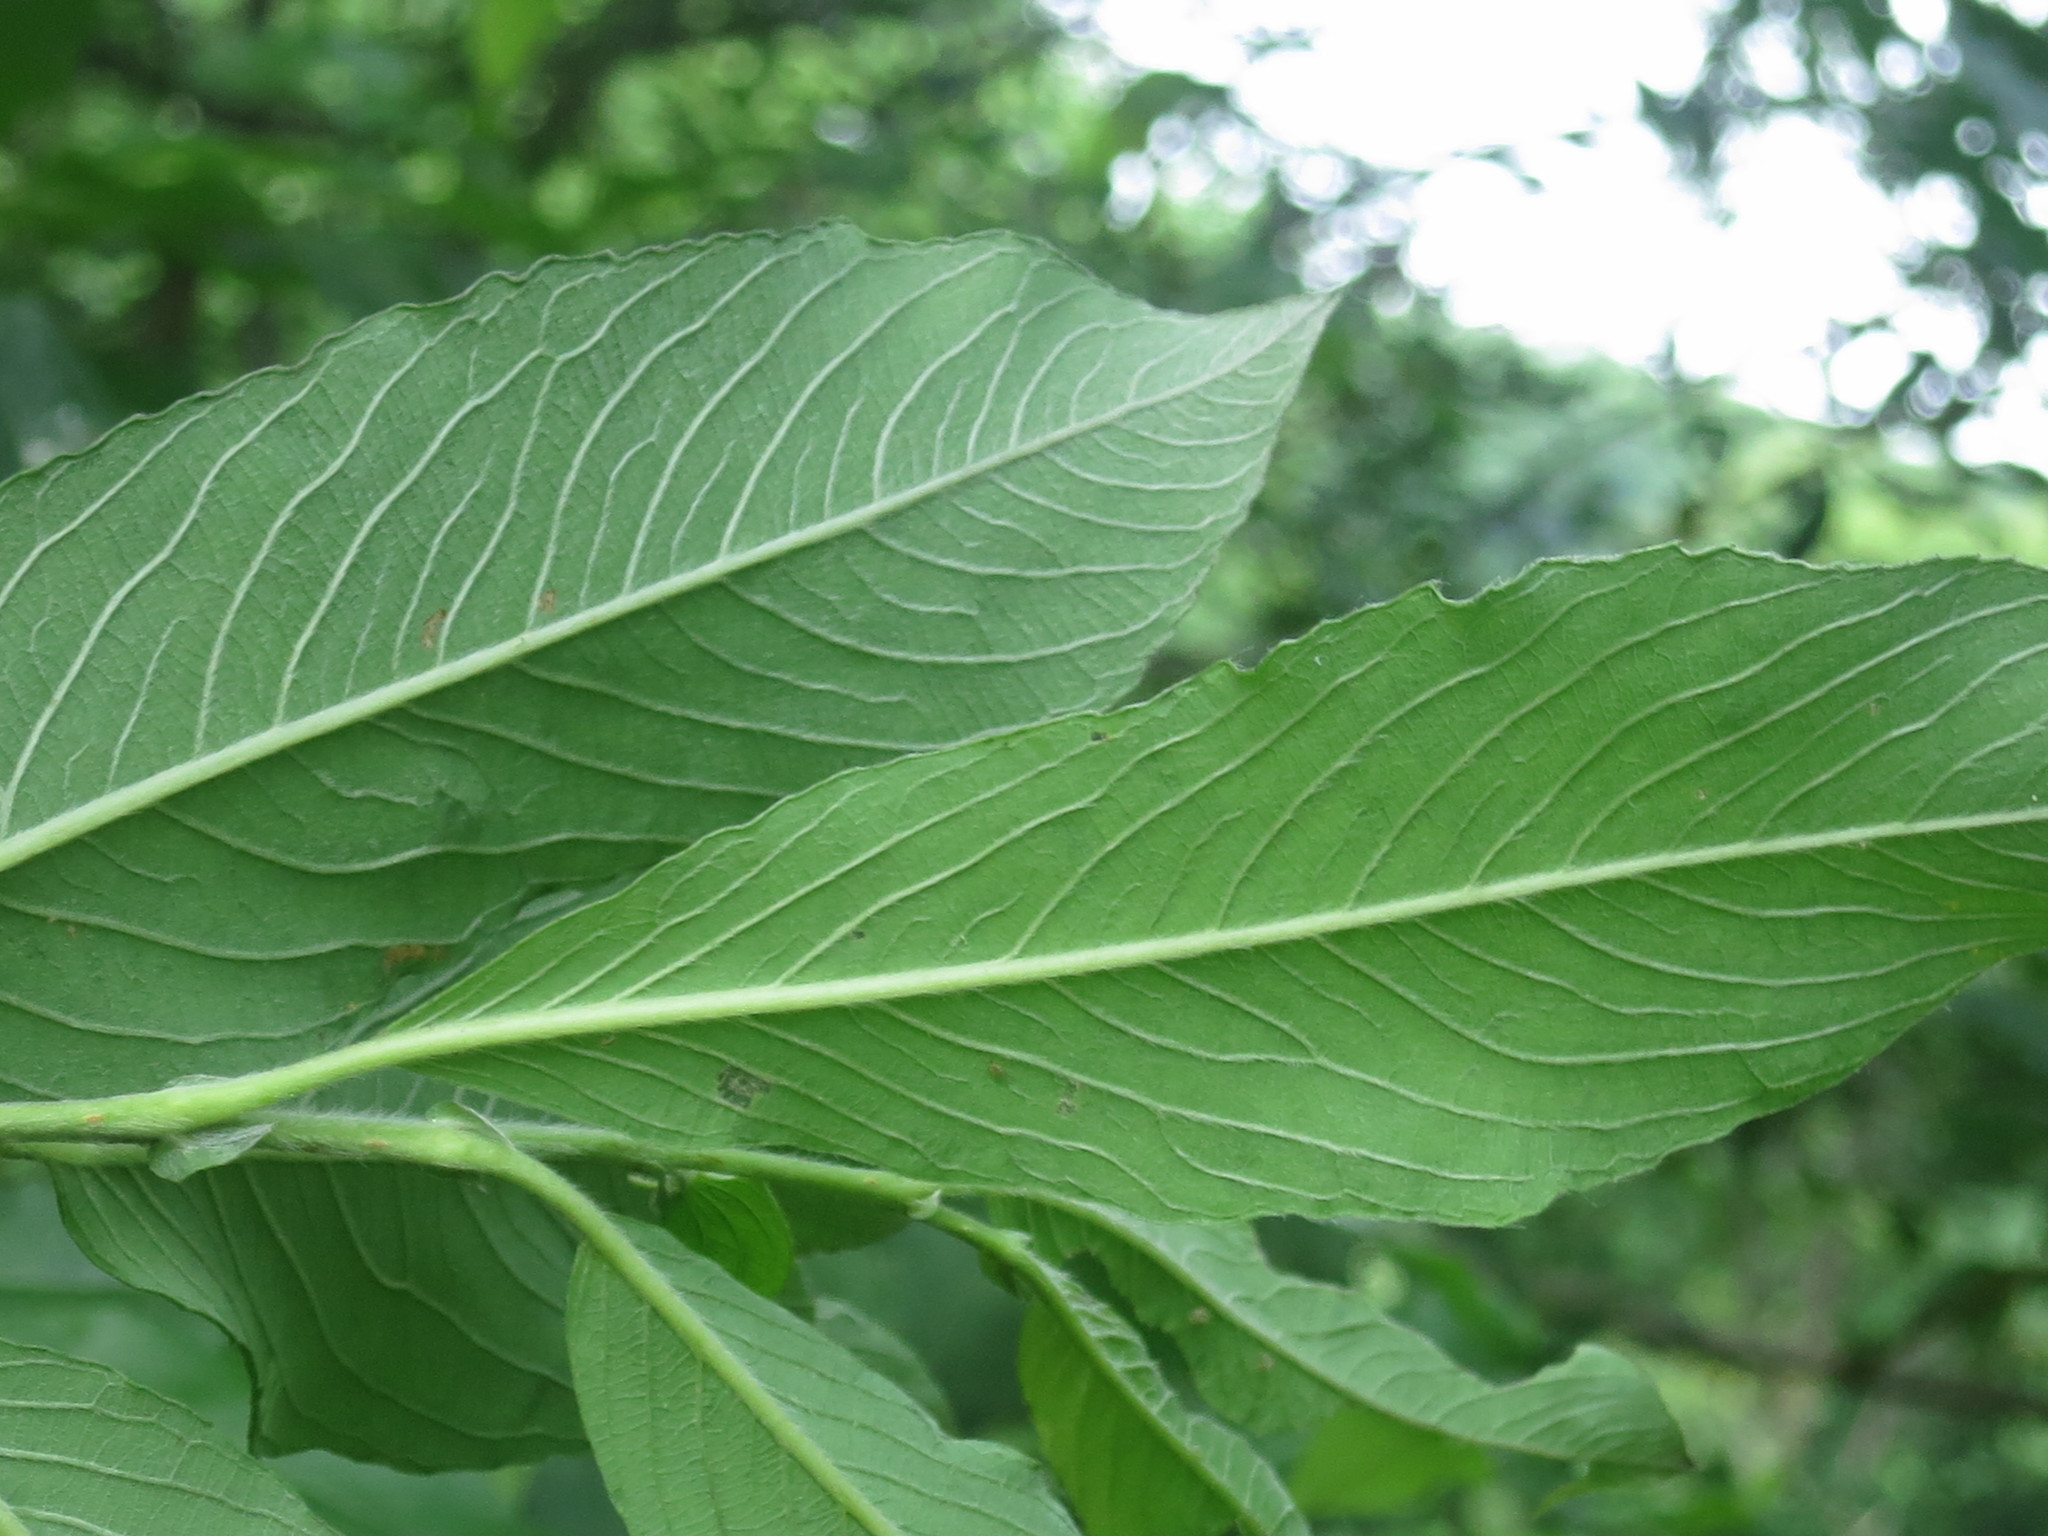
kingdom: Plantae
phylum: Tracheophyta
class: Magnoliopsida
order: Malpighiales
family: Salicaceae
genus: Salix
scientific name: Salix gracilistyla
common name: Rose-gold pussy willow
